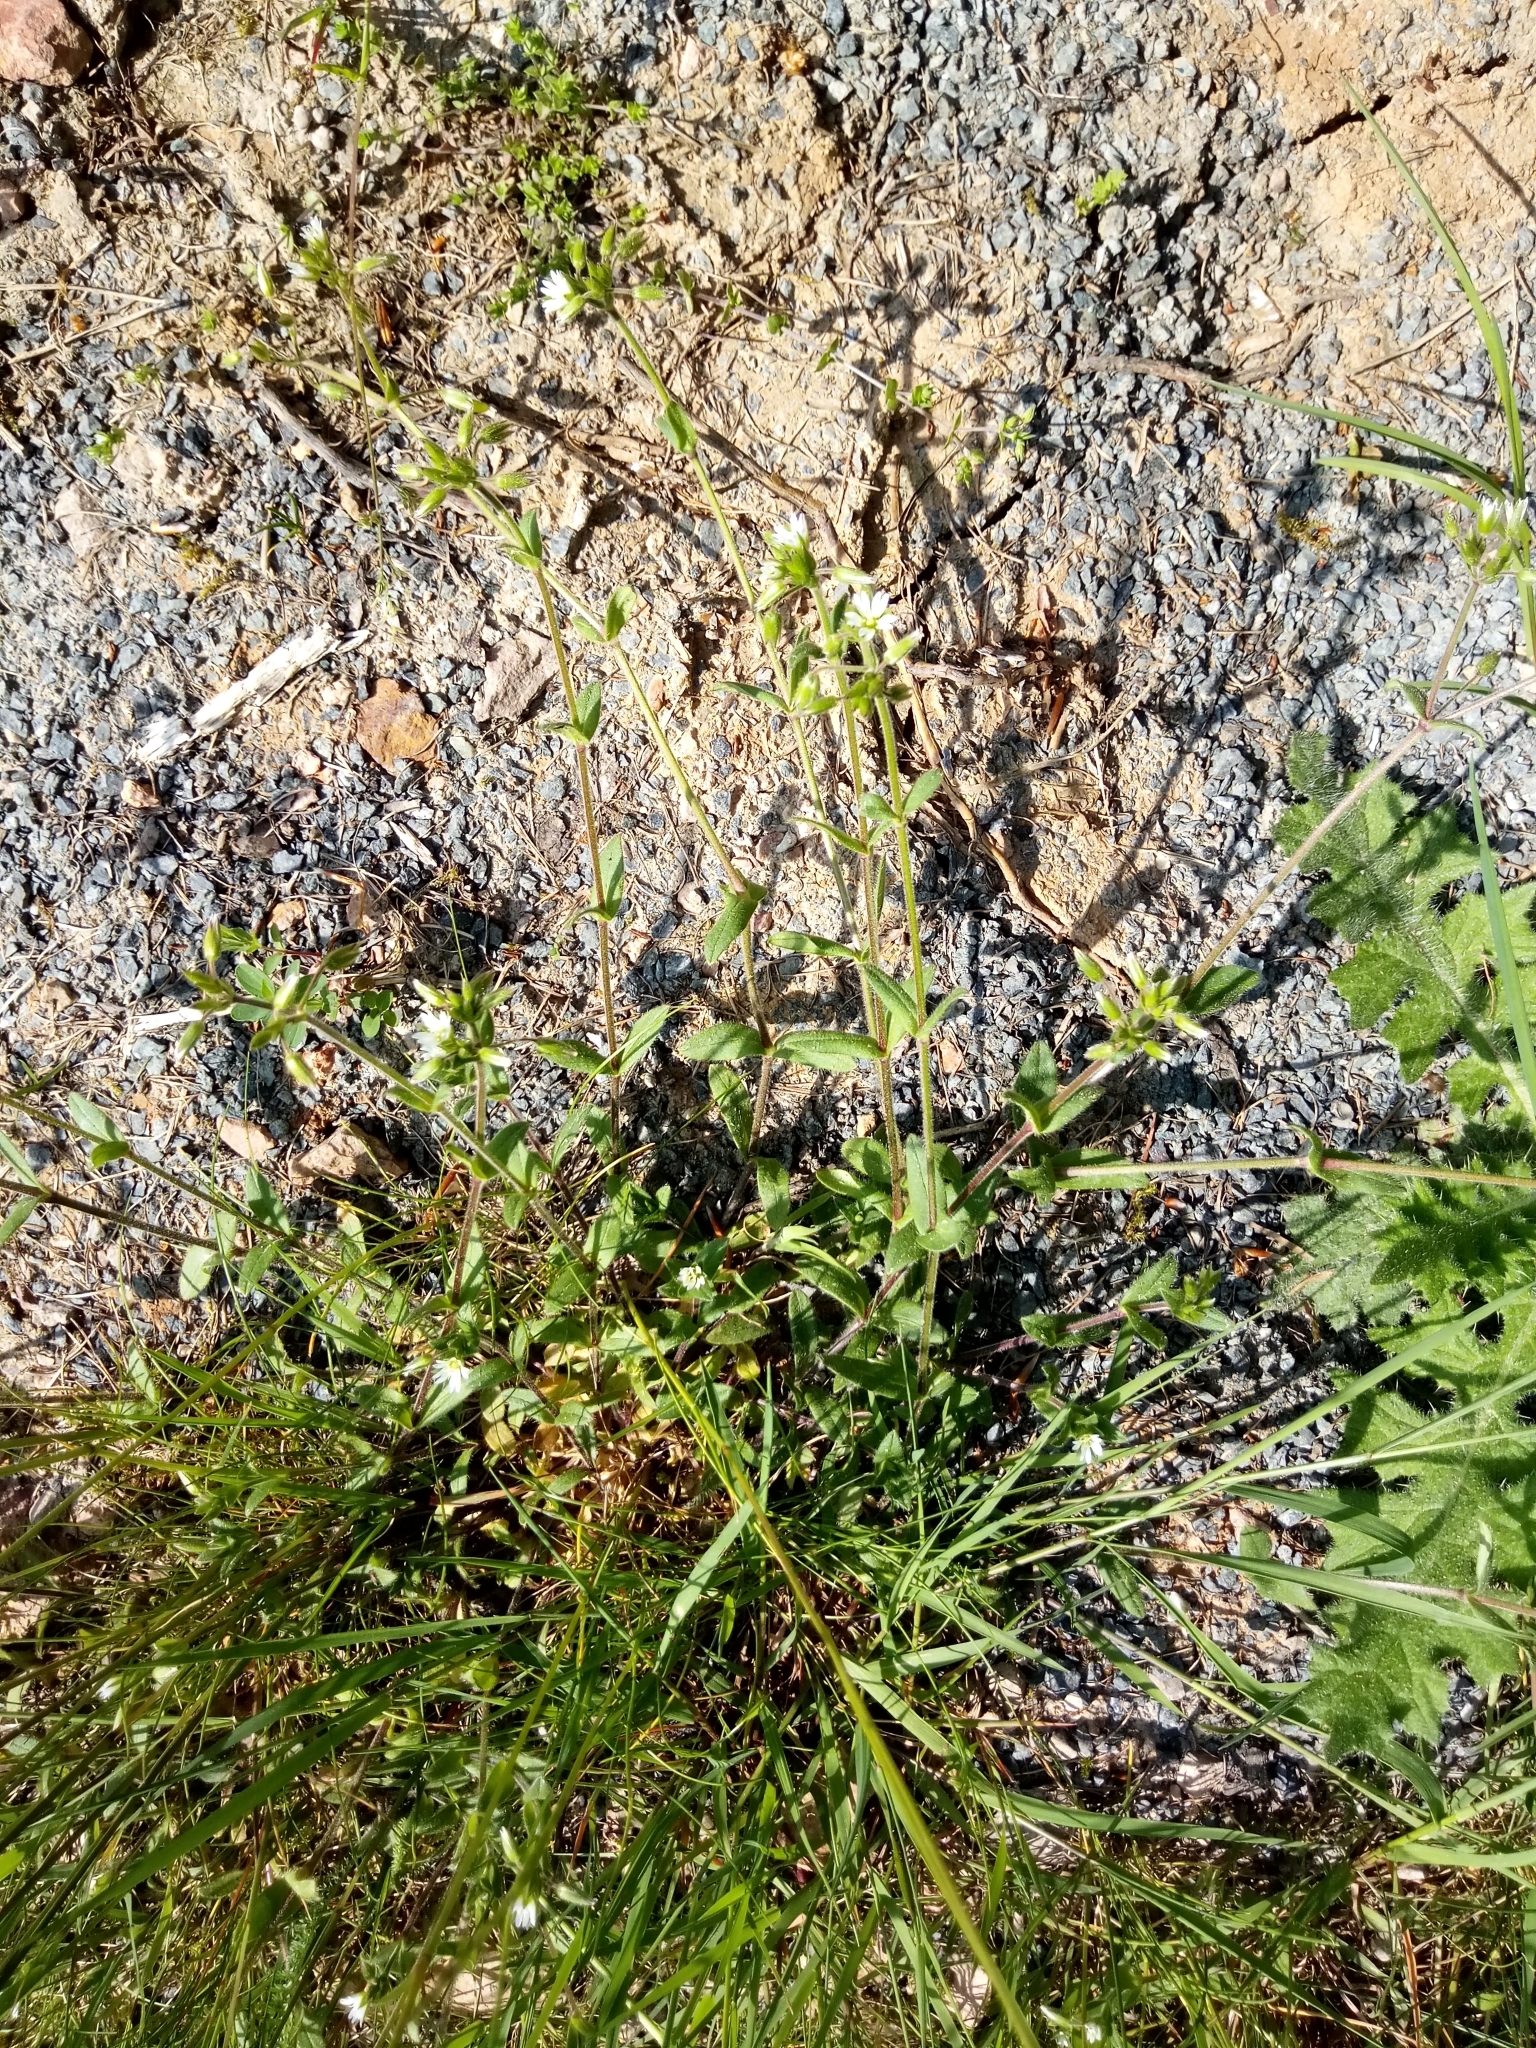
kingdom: Plantae
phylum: Tracheophyta
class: Magnoliopsida
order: Caryophyllales
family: Caryophyllaceae
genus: Cerastium
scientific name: Cerastium holosteoides
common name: Big chickweed
